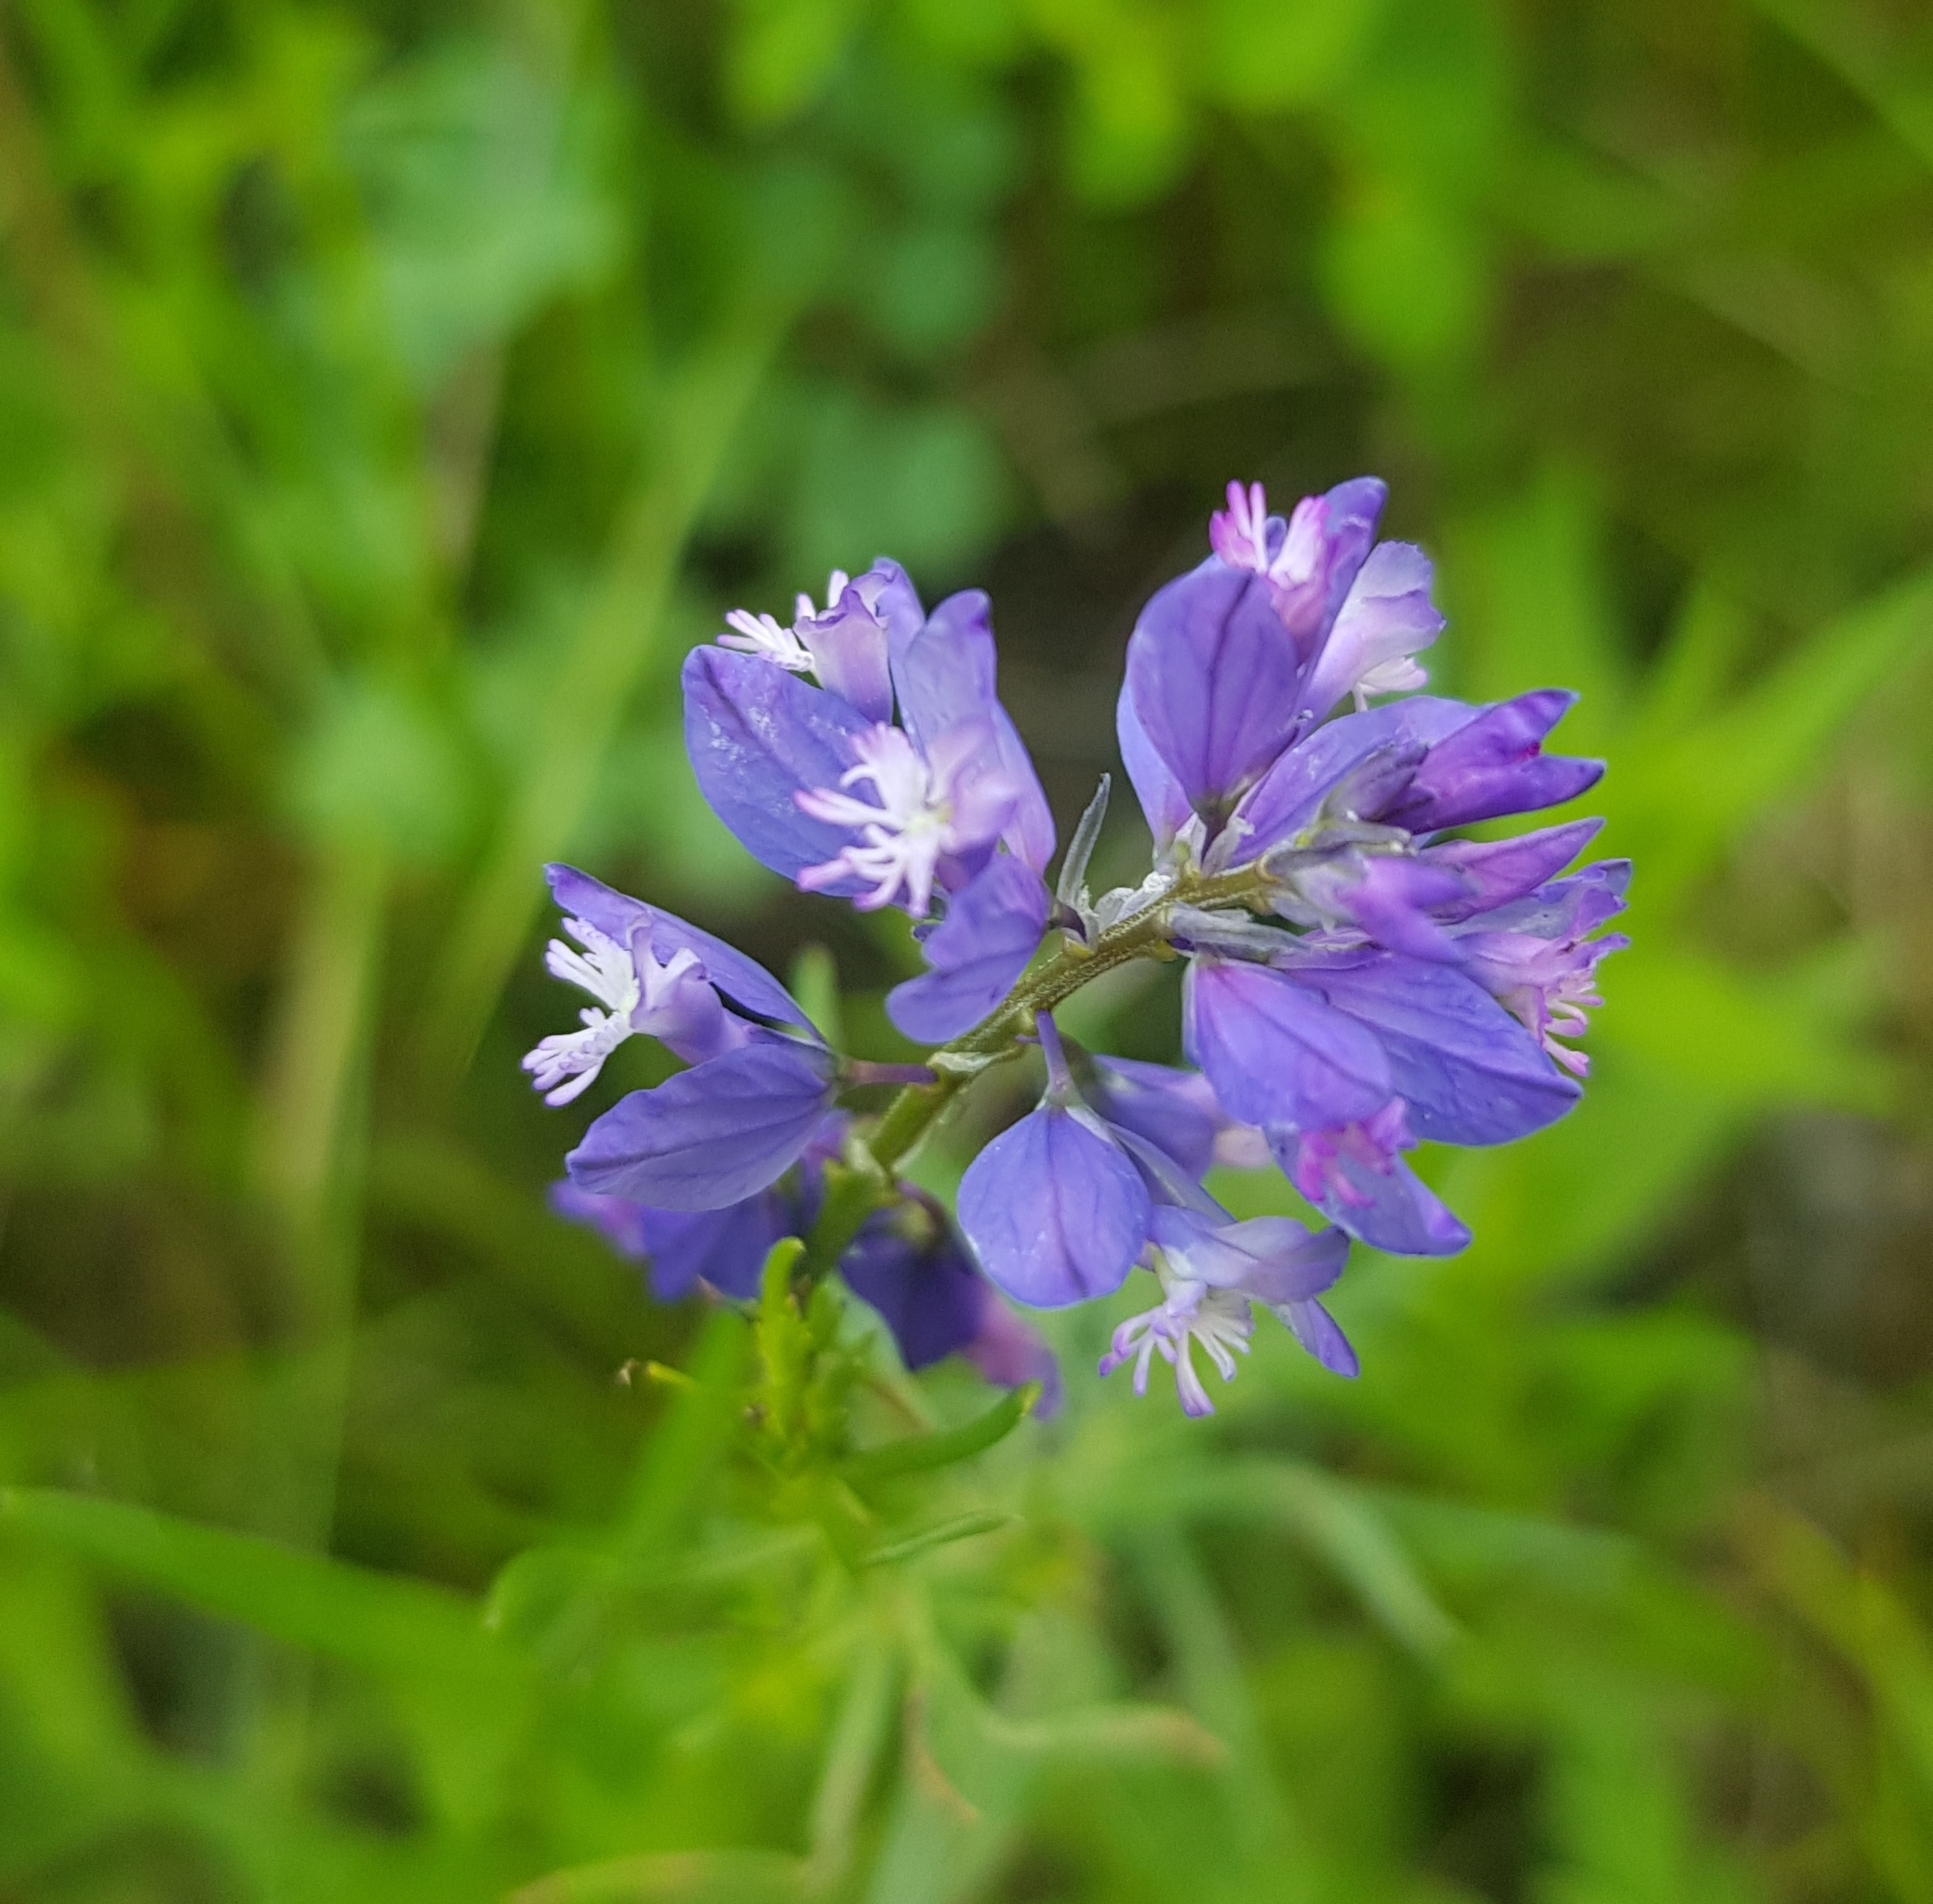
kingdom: Plantae
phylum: Tracheophyta
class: Magnoliopsida
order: Fabales
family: Polygalaceae
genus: Polygala
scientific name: Polygala sibirica
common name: Siberian polygala
